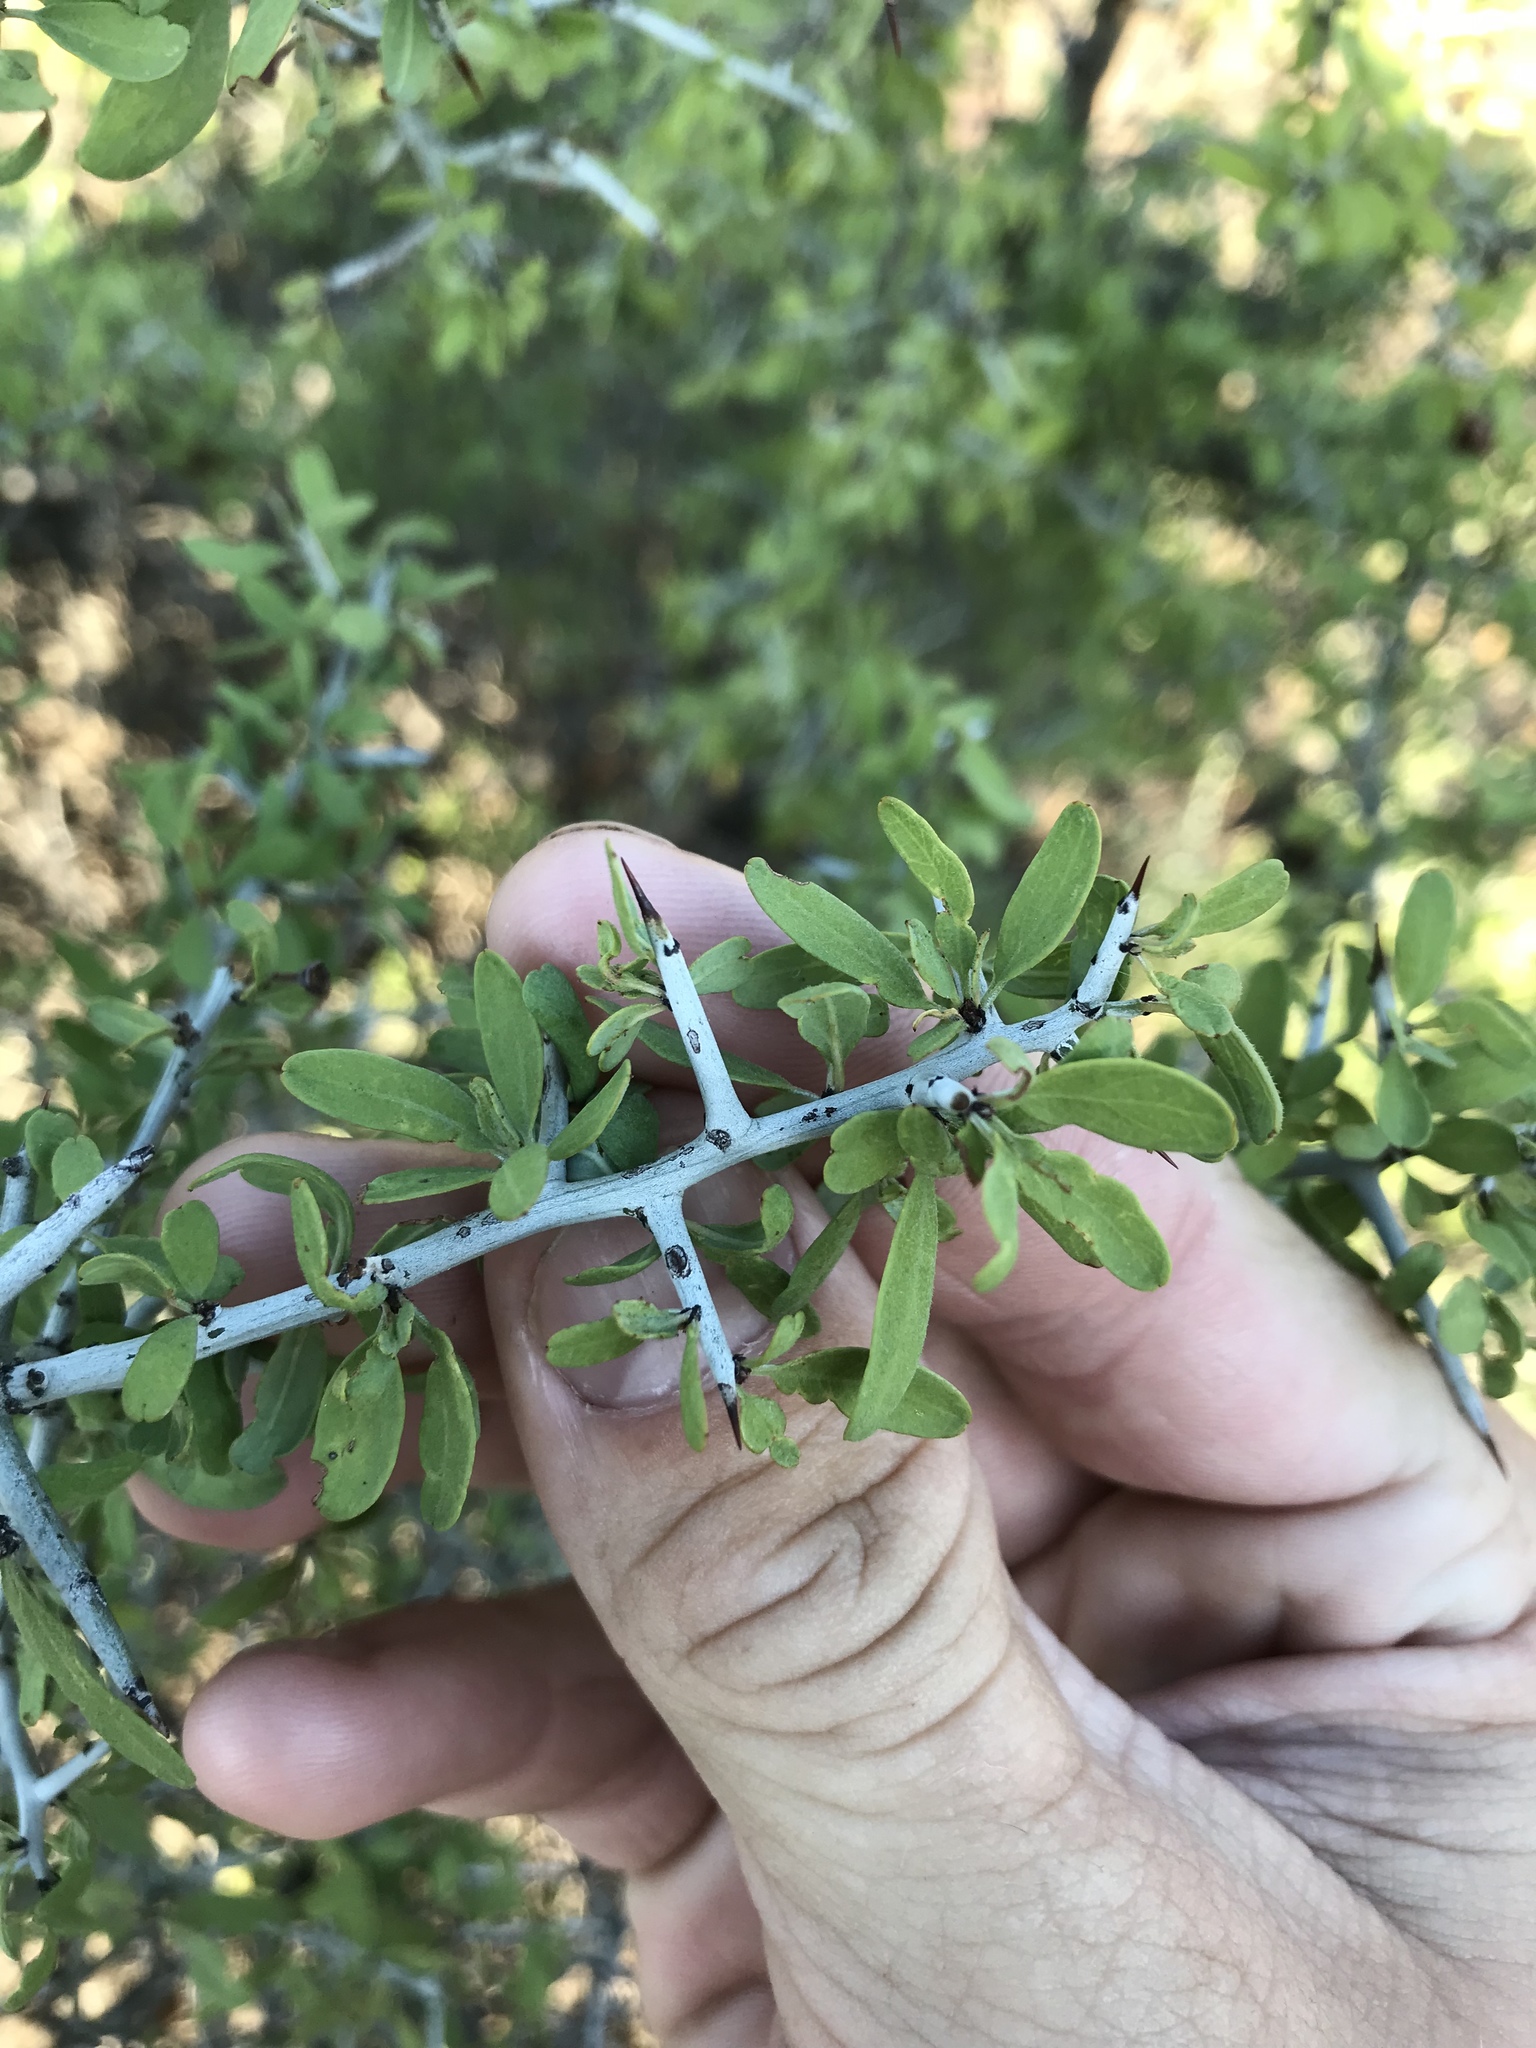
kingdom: Plantae
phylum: Tracheophyta
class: Magnoliopsida
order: Rosales
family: Rhamnaceae
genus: Sarcomphalus
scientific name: Sarcomphalus obtusifolius
